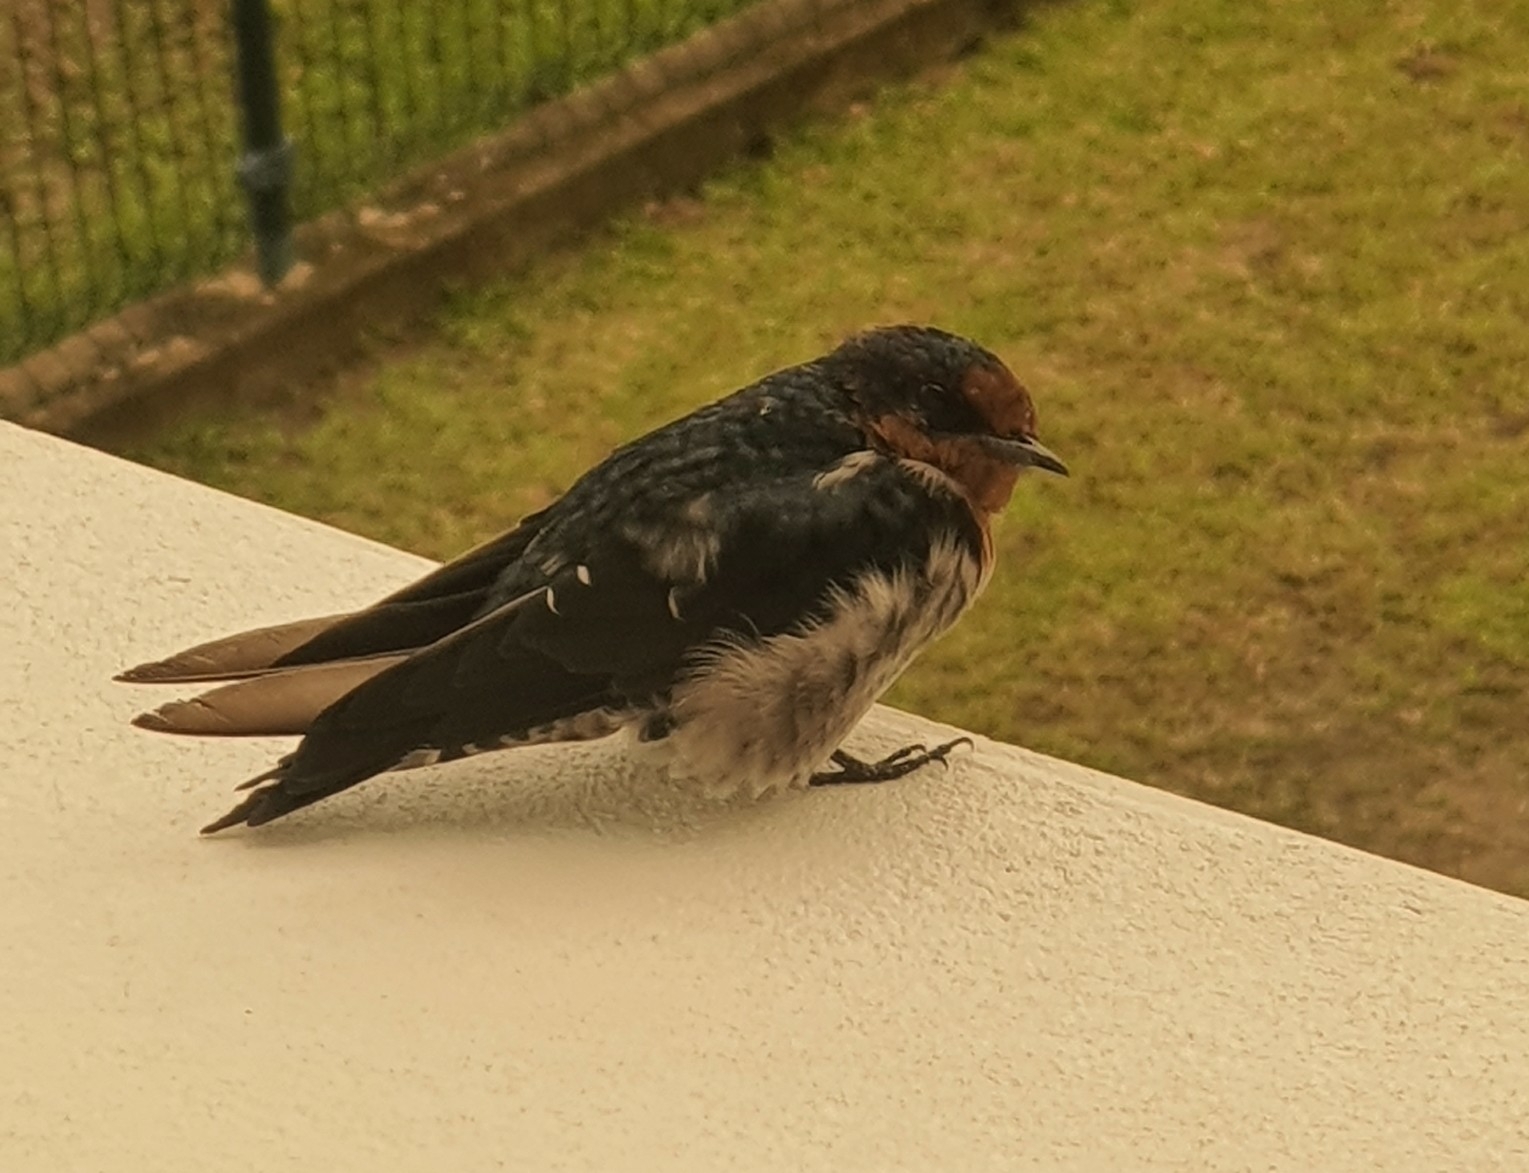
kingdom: Animalia
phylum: Chordata
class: Aves
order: Passeriformes
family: Hirundinidae
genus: Hirundo
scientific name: Hirundo tahitica
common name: Pacific swallow
